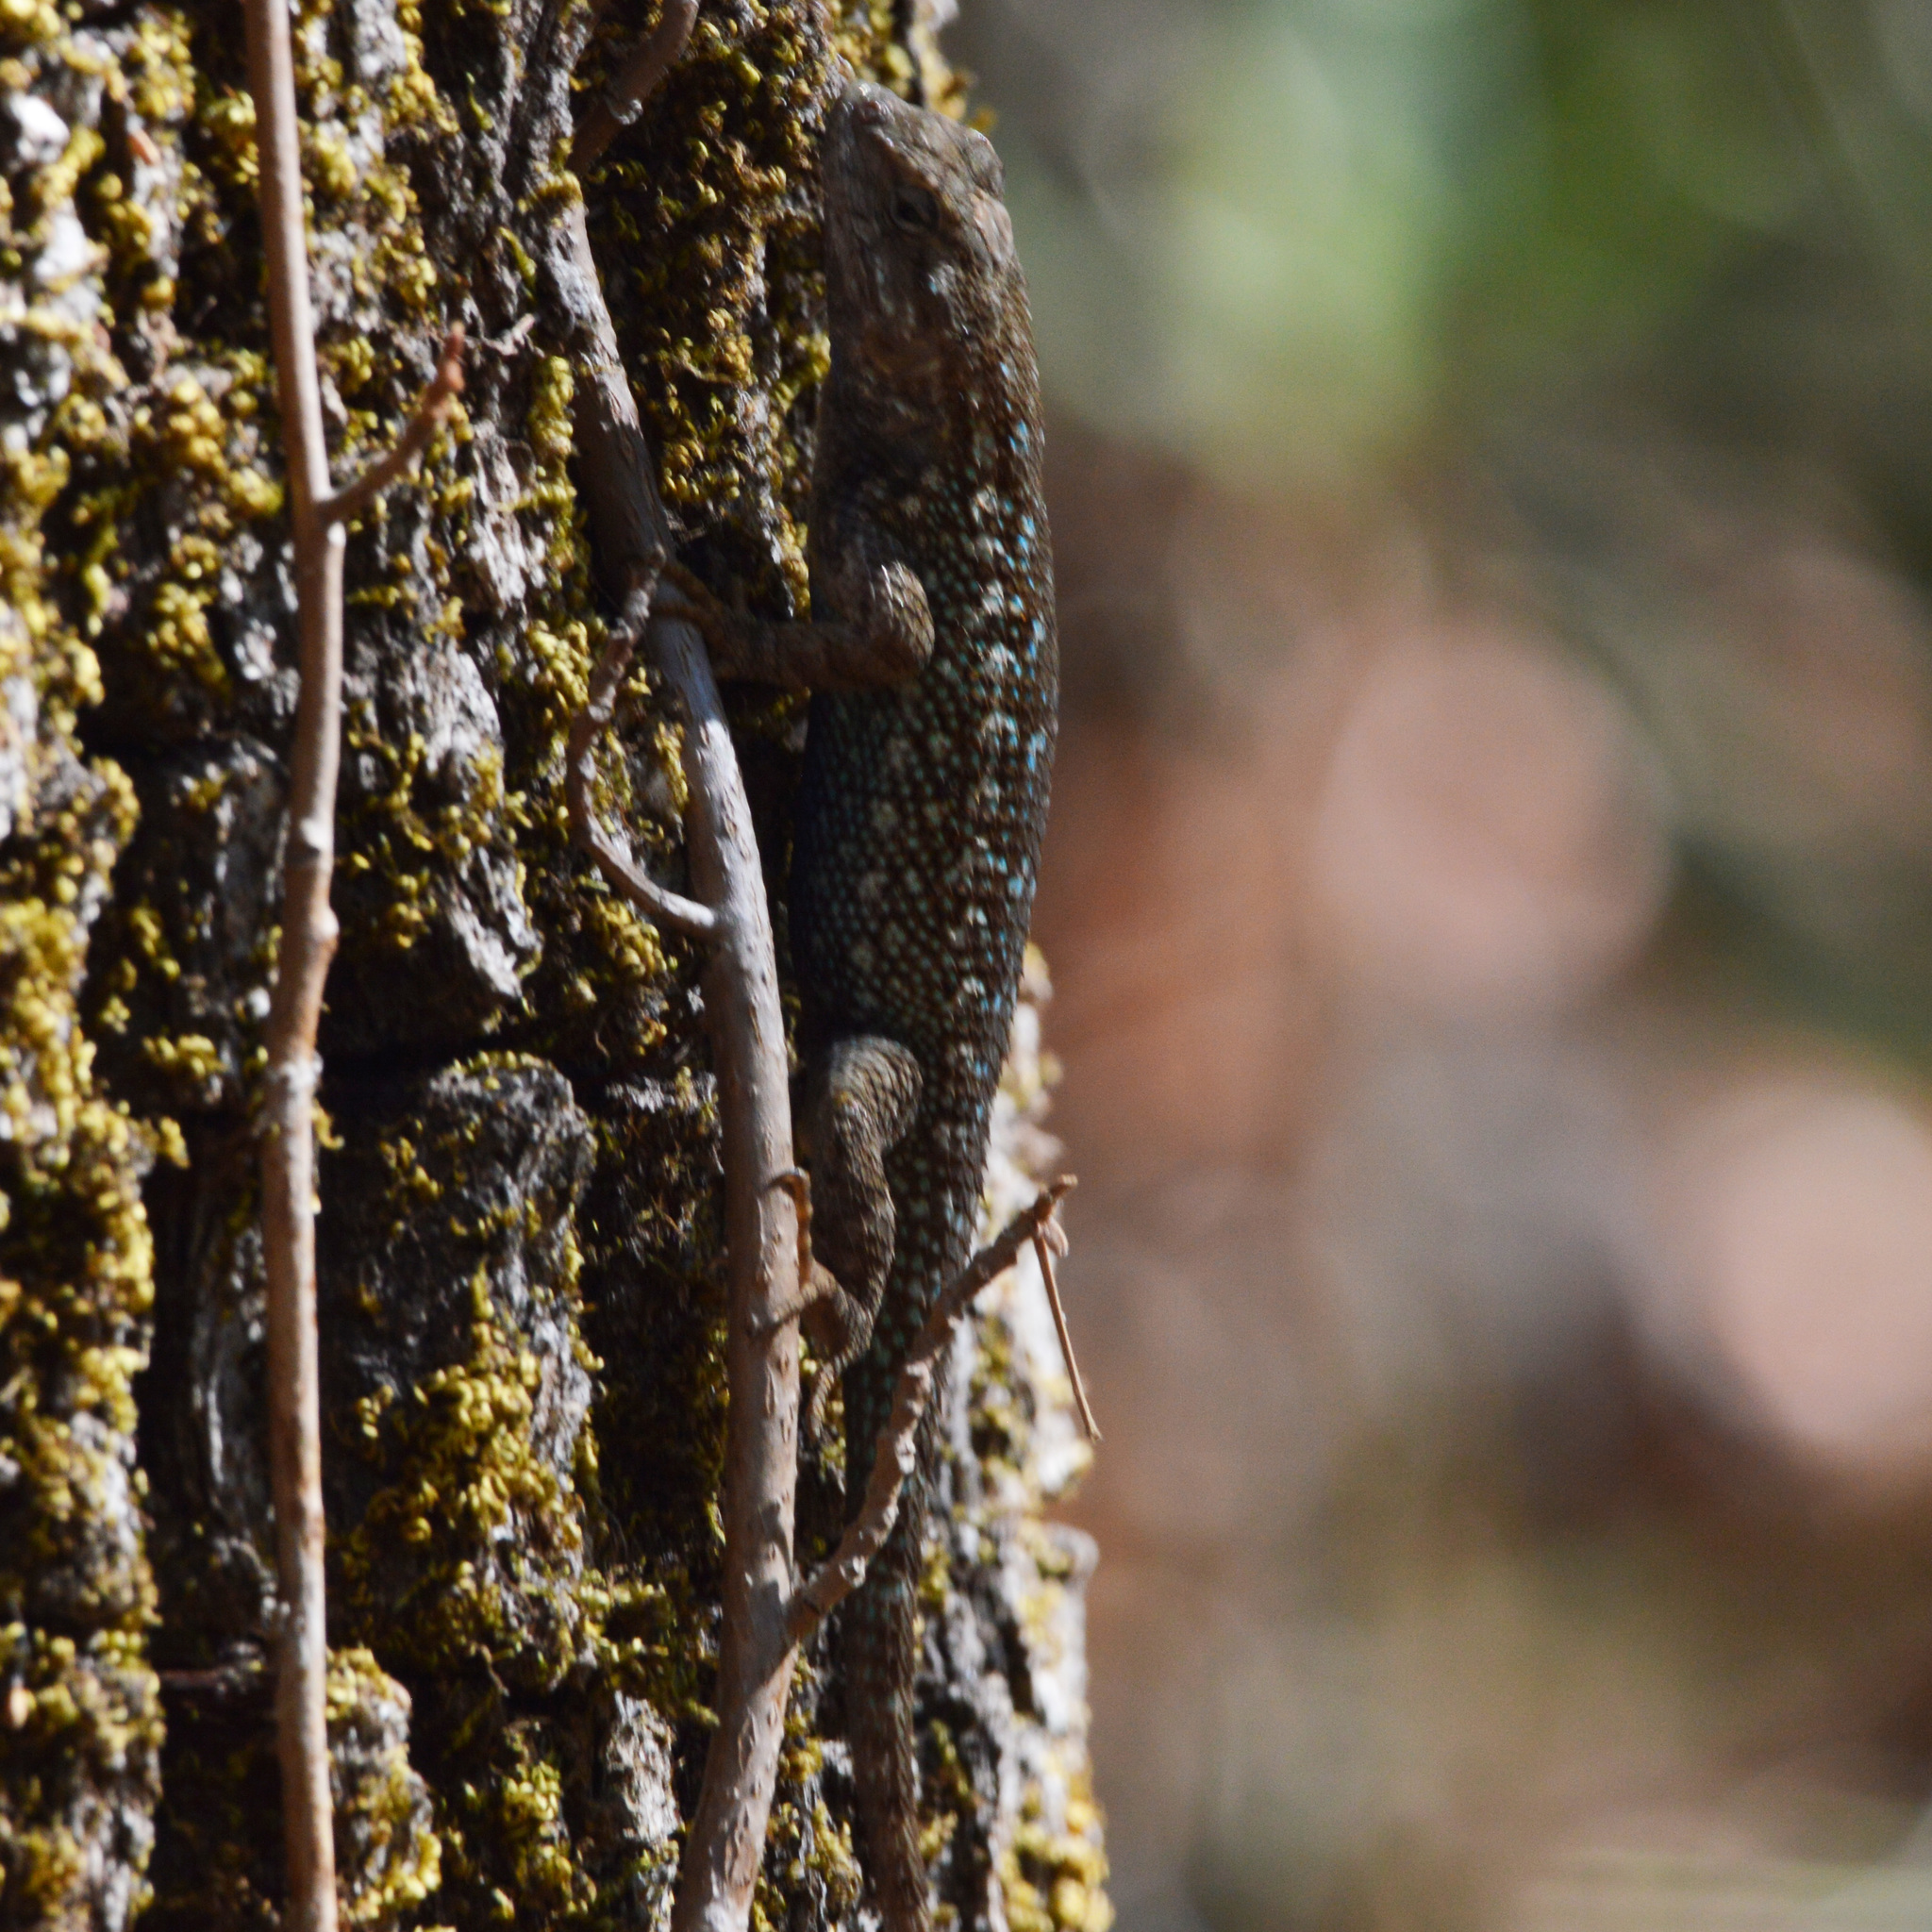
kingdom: Animalia
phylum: Chordata
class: Squamata
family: Phrynosomatidae
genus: Sceloporus
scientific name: Sceloporus occidentalis
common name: Western fence lizard
